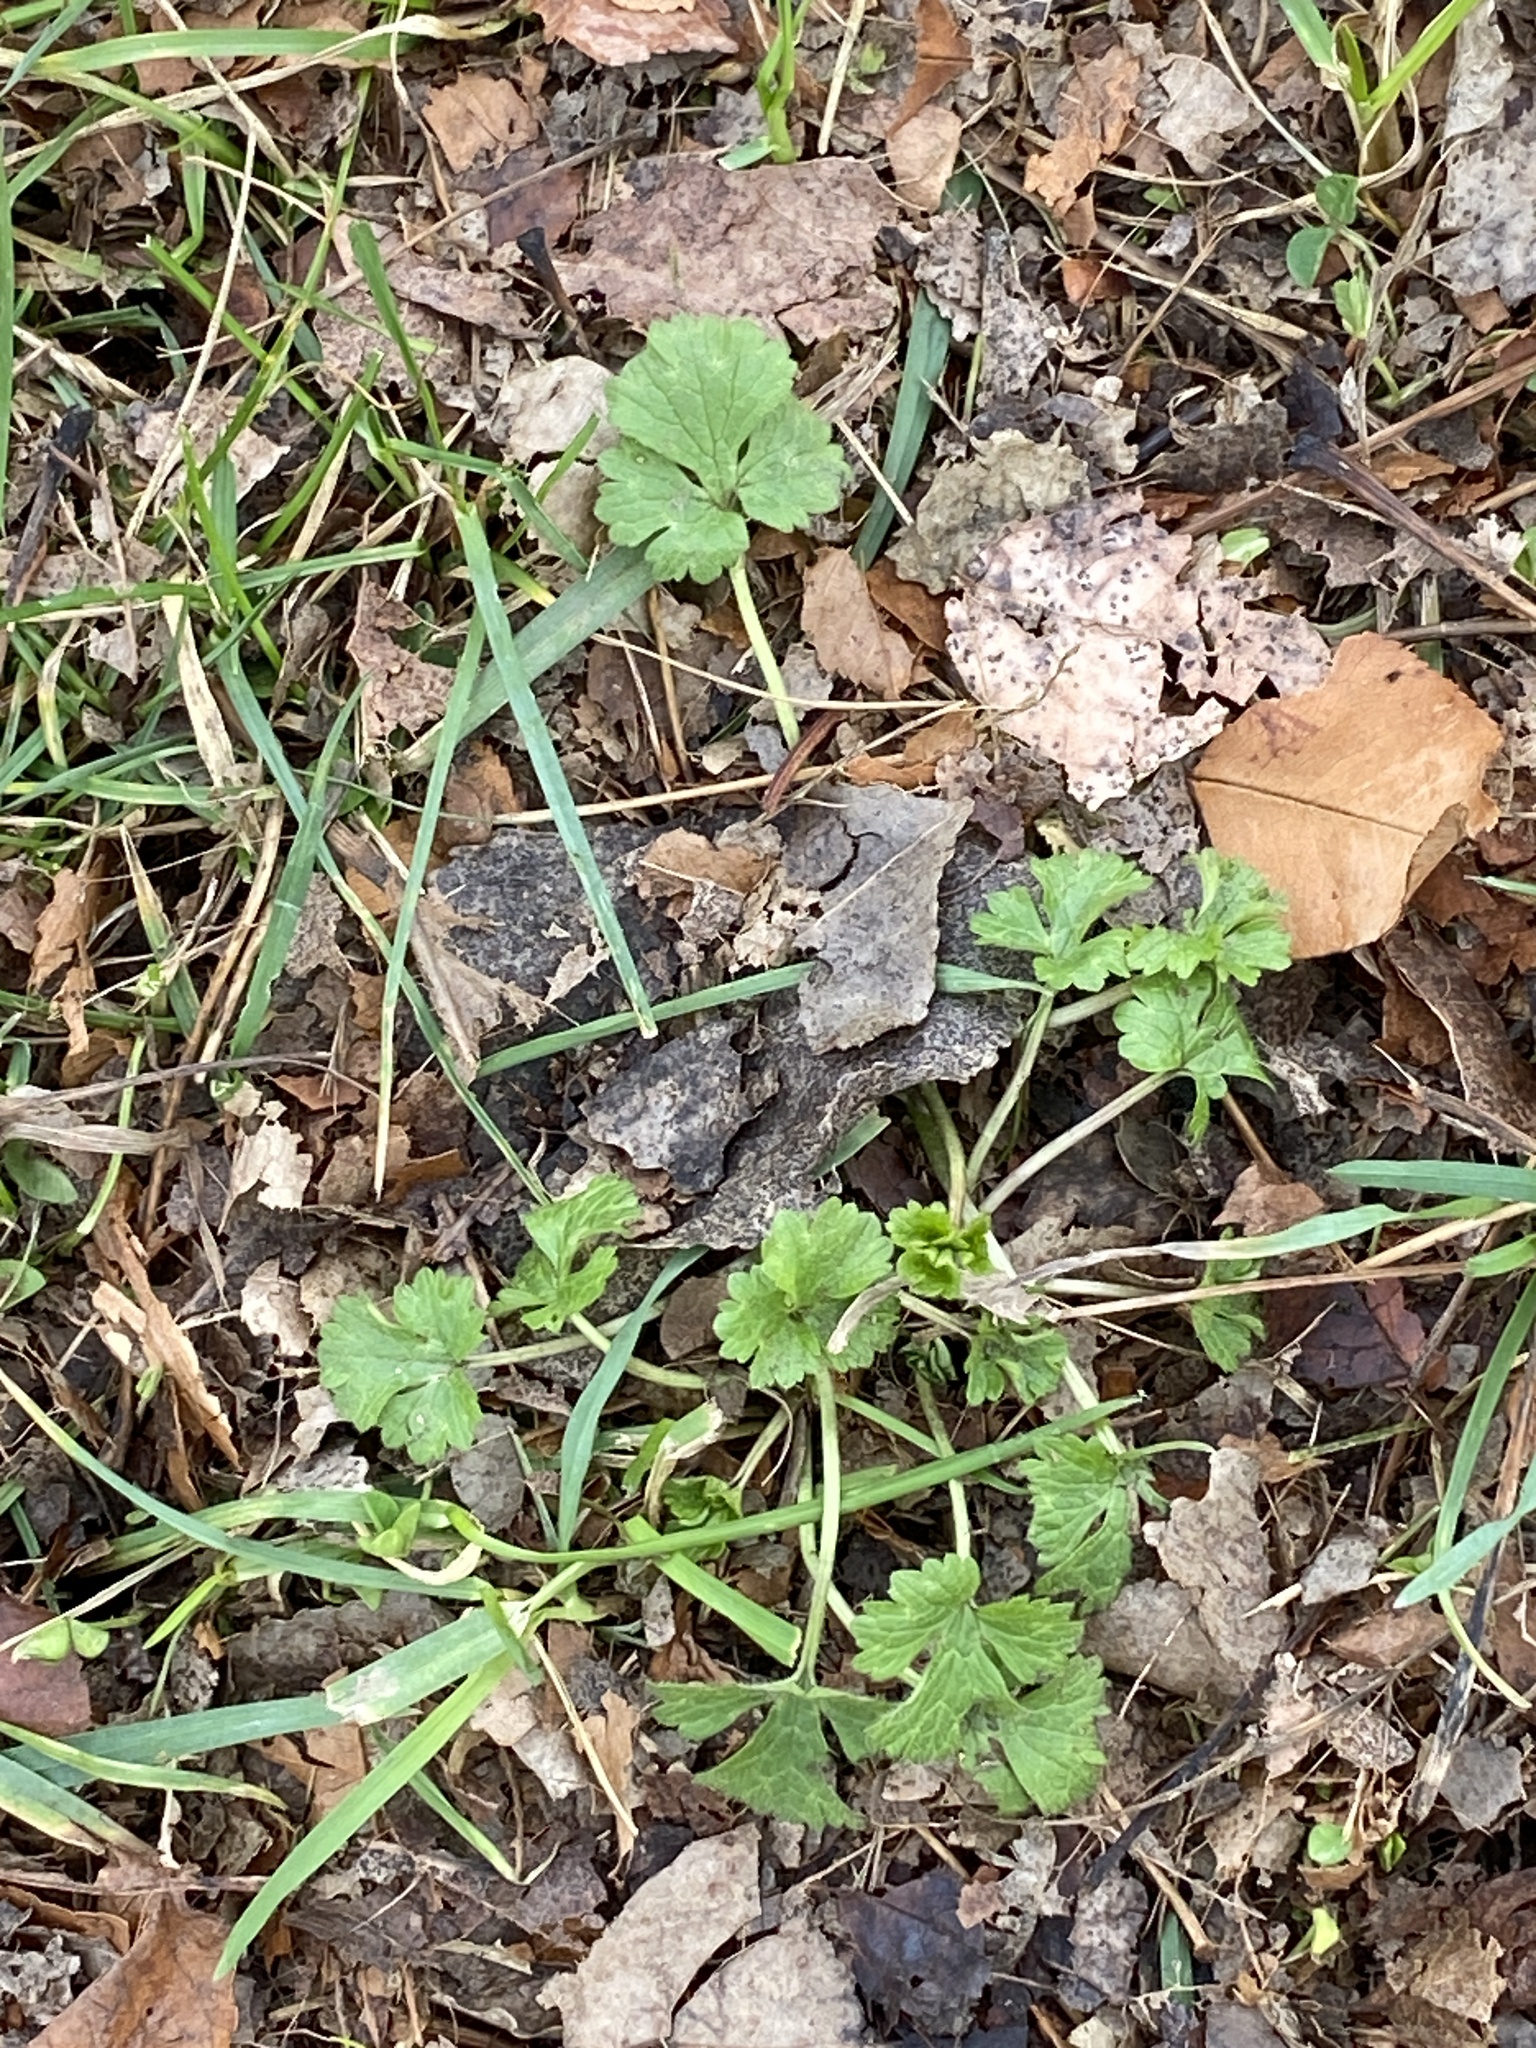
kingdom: Plantae
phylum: Tracheophyta
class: Magnoliopsida
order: Ranunculales
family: Ranunculaceae
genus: Ranunculus
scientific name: Ranunculus bulbosus
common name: Bulbous buttercup
